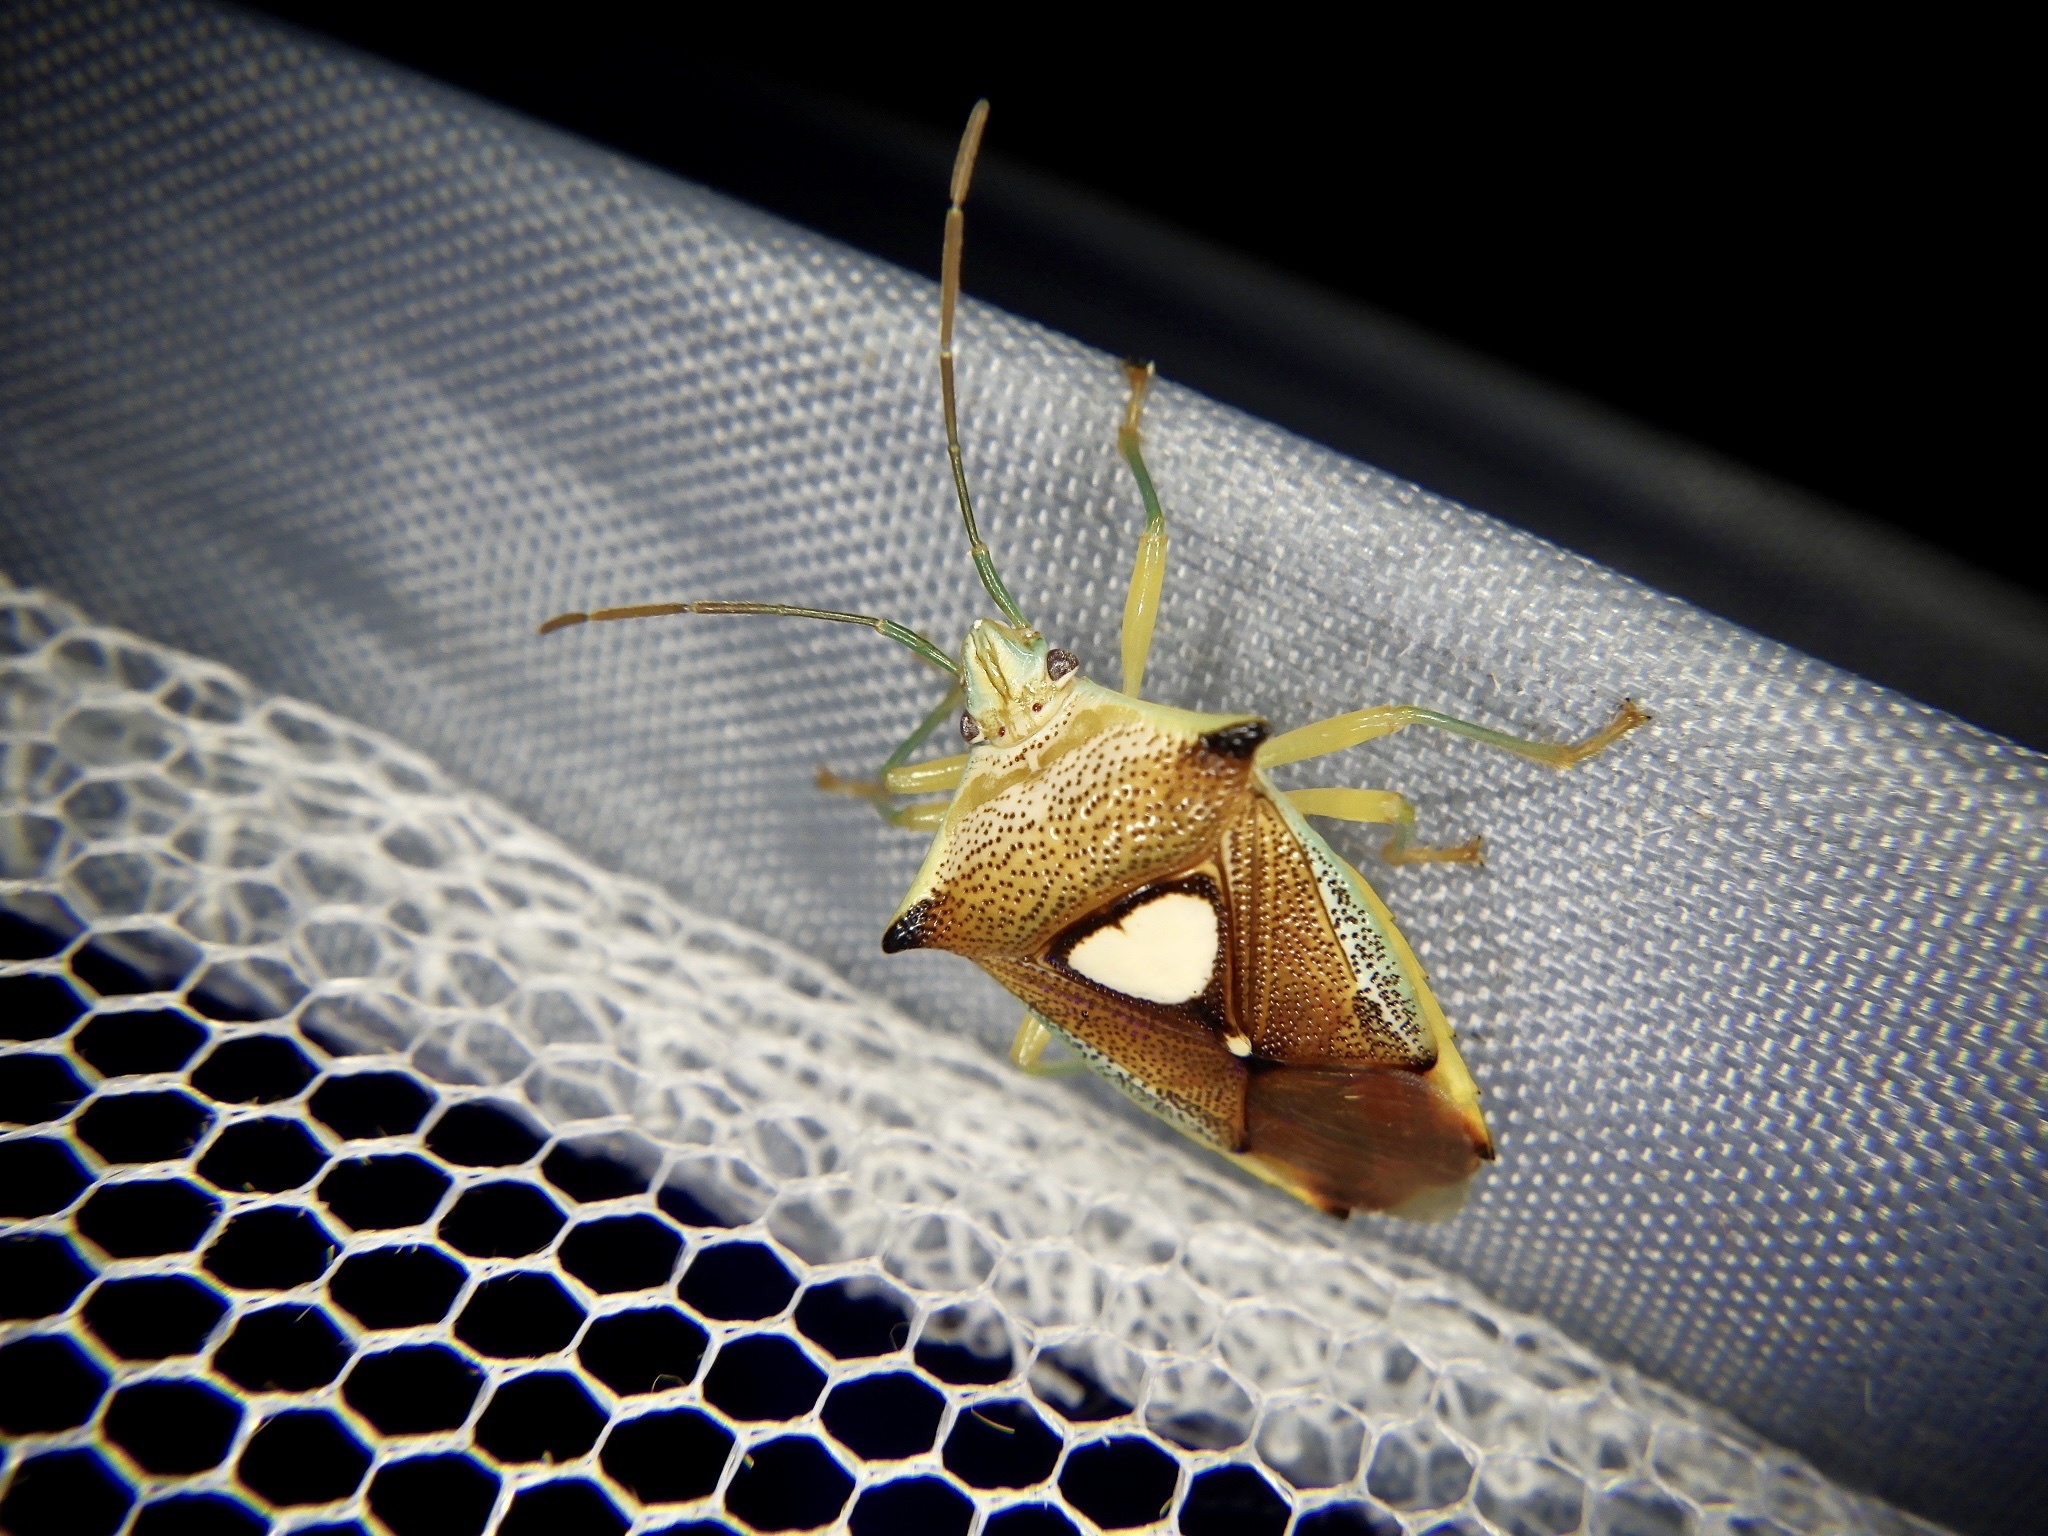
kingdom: Animalia
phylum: Arthropoda
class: Insecta
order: Hemiptera
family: Acanthosomatidae
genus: Sastragala
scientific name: Sastragala esakii
